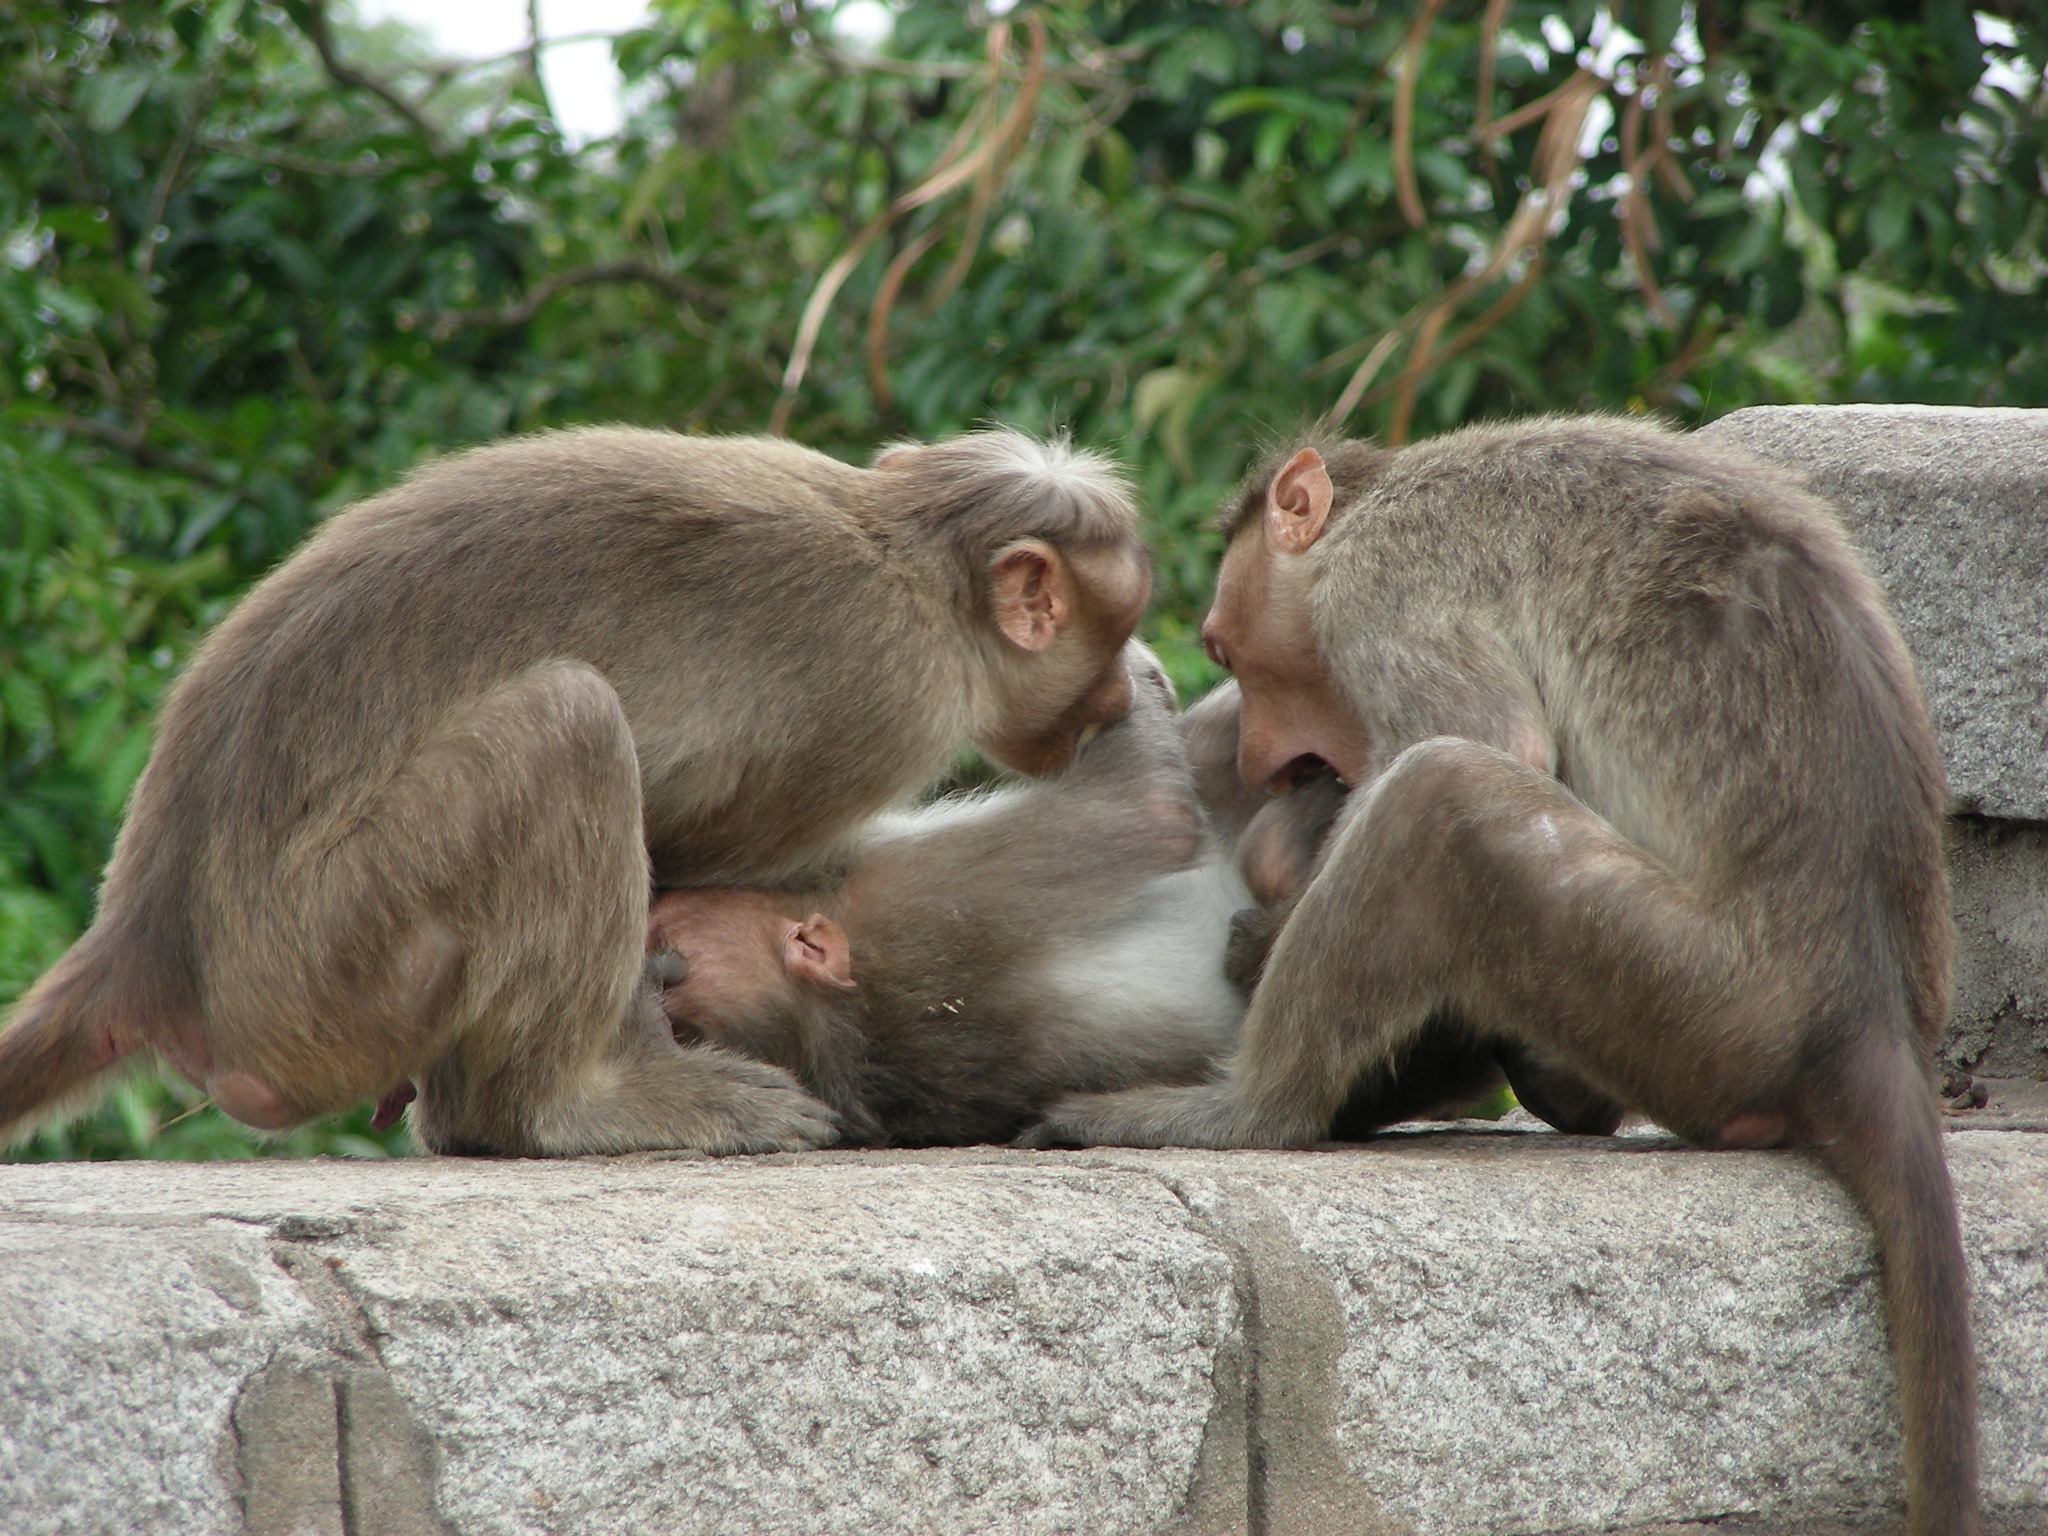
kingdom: Animalia
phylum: Chordata
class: Mammalia
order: Primates
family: Cercopithecidae
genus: Macaca
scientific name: Macaca radiata
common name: Bonnet macaque
